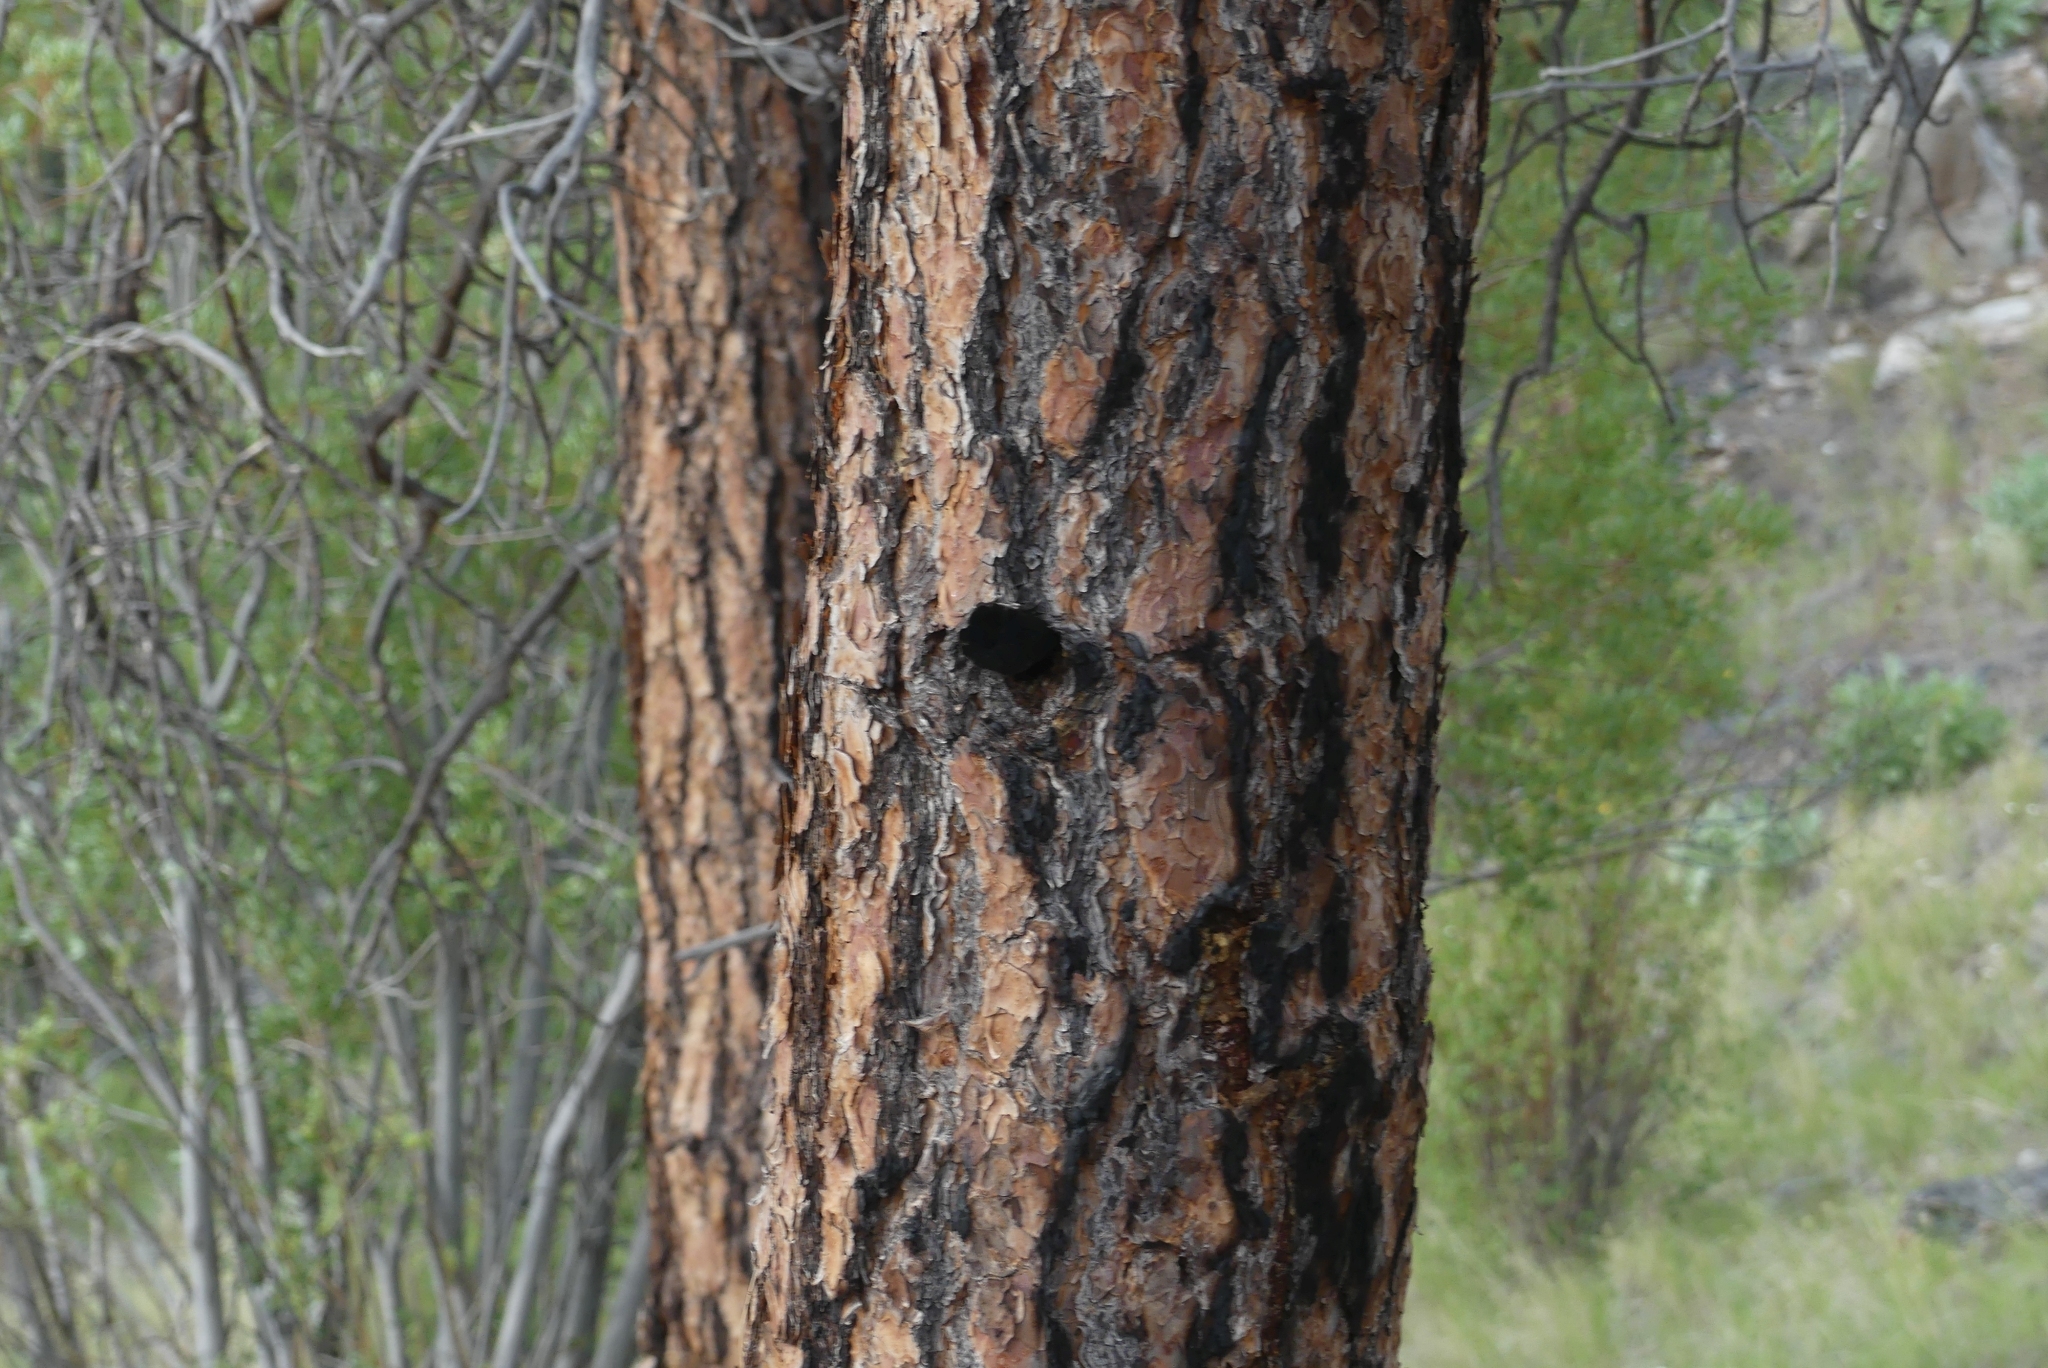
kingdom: Plantae
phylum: Tracheophyta
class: Pinopsida
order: Pinales
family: Pinaceae
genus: Pinus
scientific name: Pinus ponderosa
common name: Western yellow-pine
